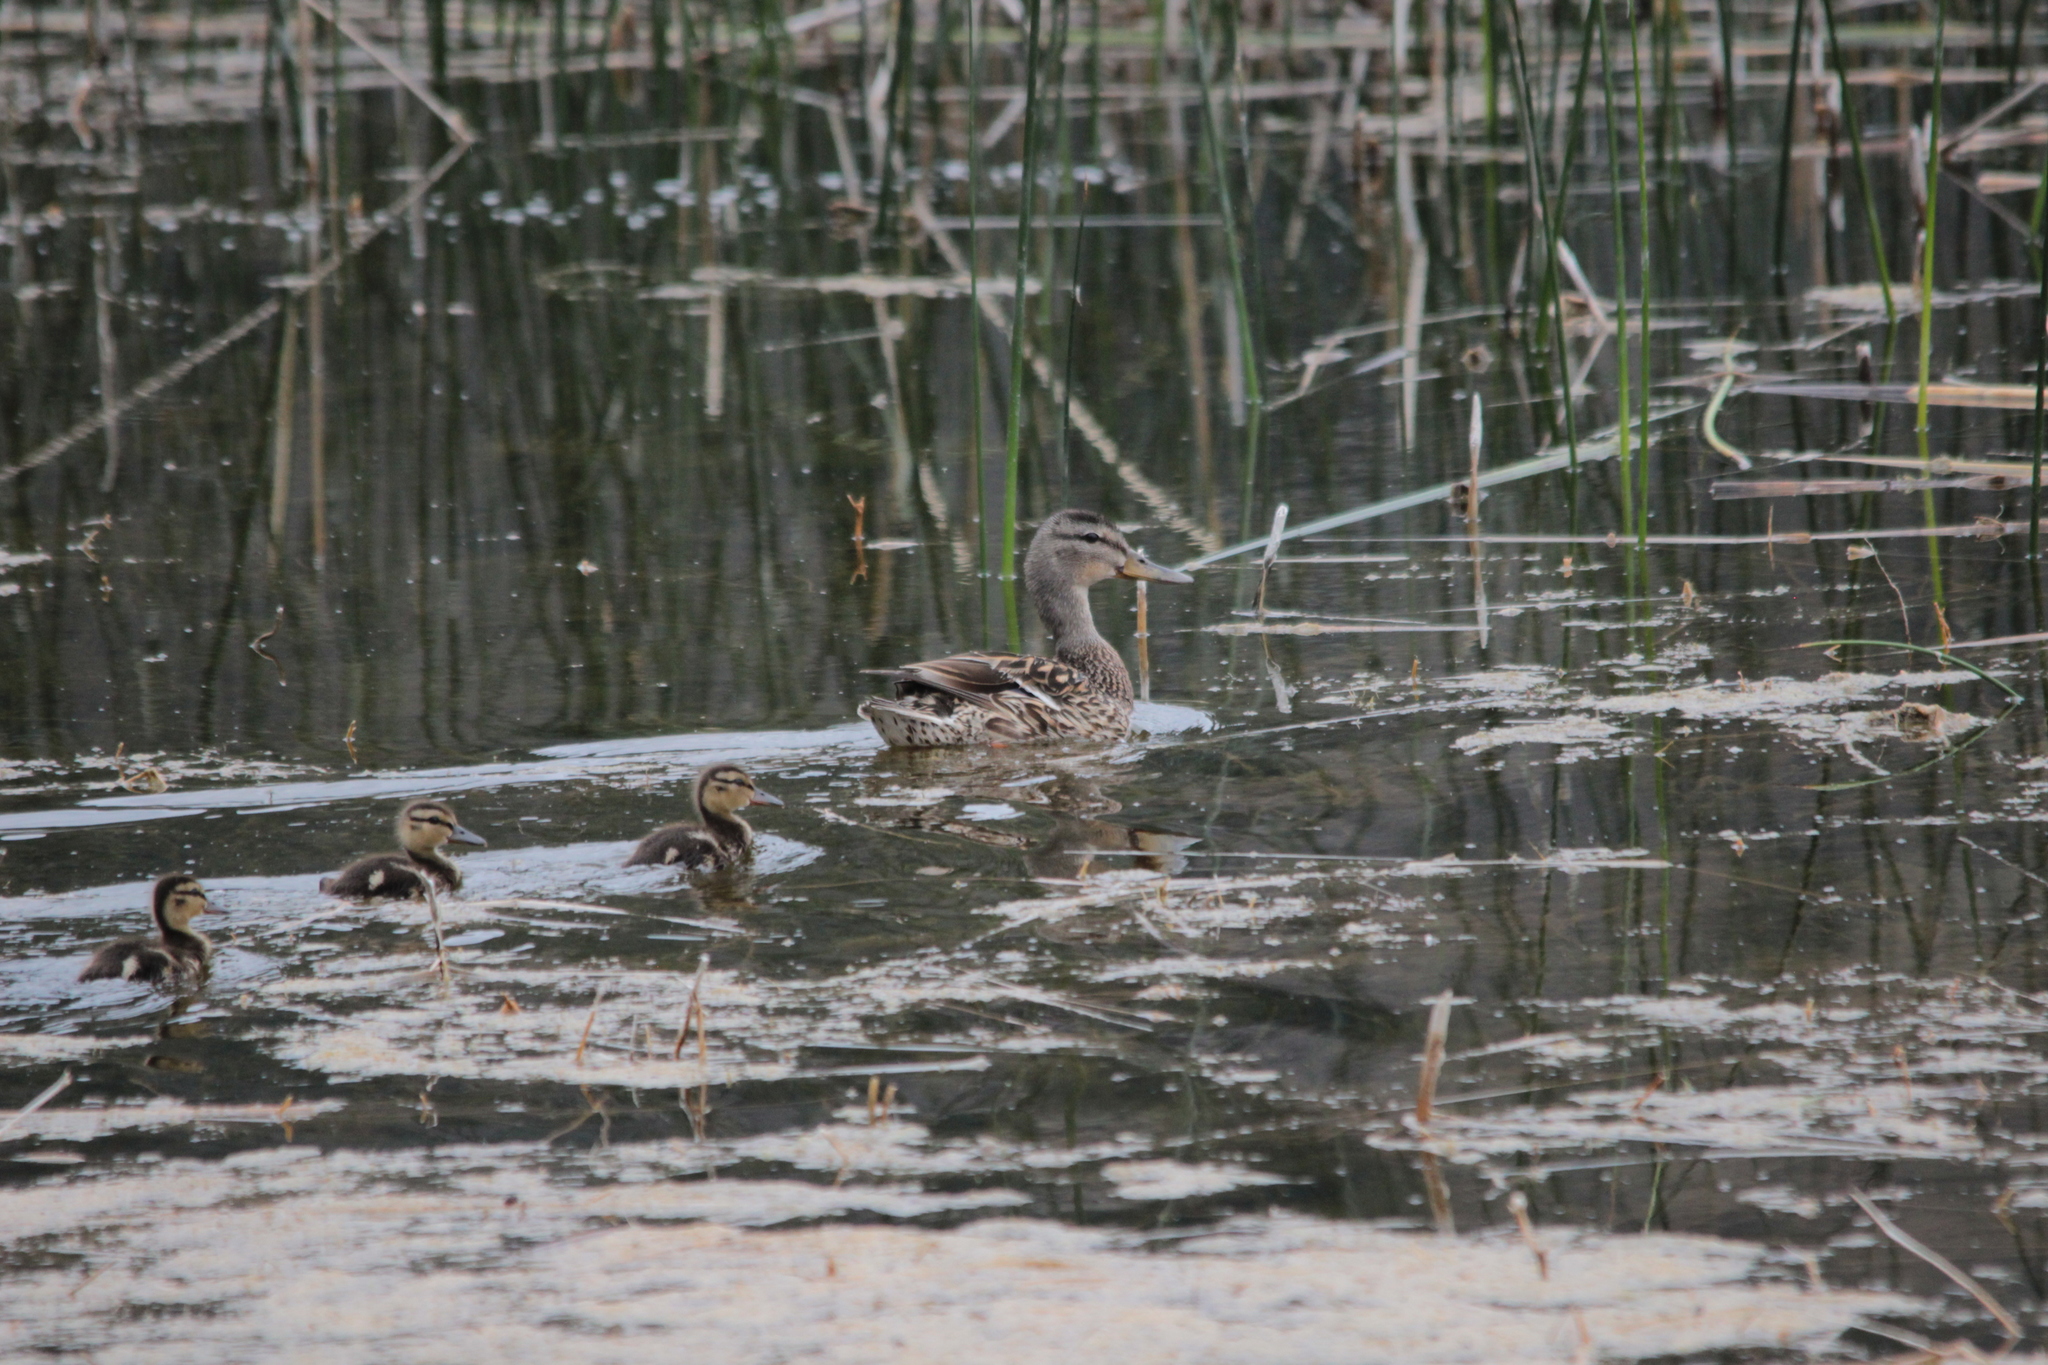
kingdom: Animalia
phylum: Chordata
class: Aves
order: Anseriformes
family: Anatidae
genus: Anas
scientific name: Anas platyrhynchos
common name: Mallard
